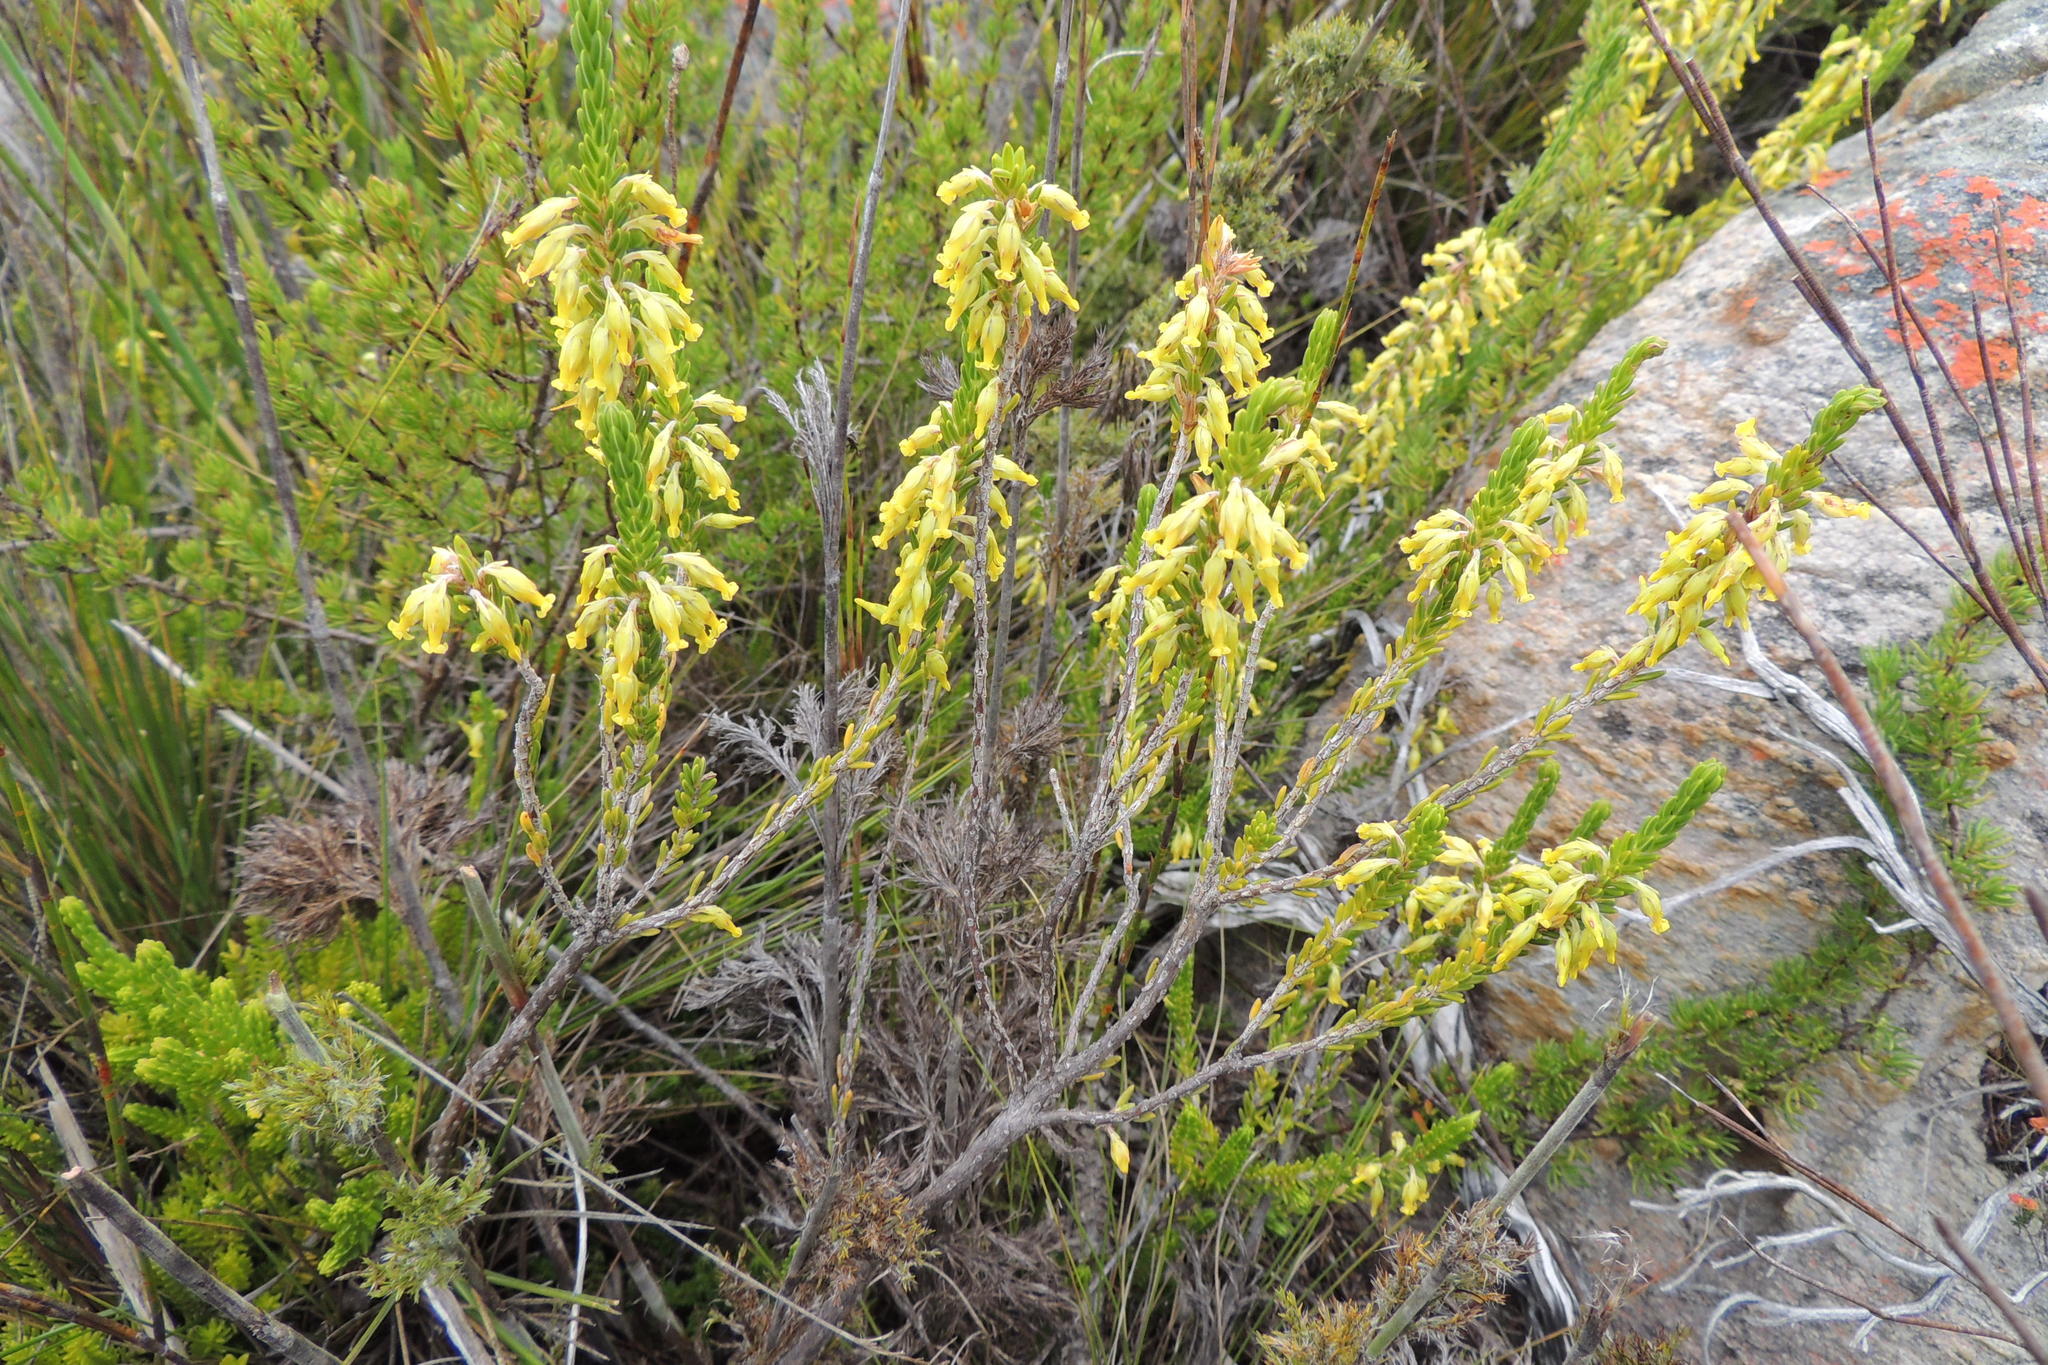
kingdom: Plantae
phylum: Tracheophyta
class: Magnoliopsida
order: Ericales
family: Ericaceae
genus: Erica
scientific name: Erica chlorosepala
